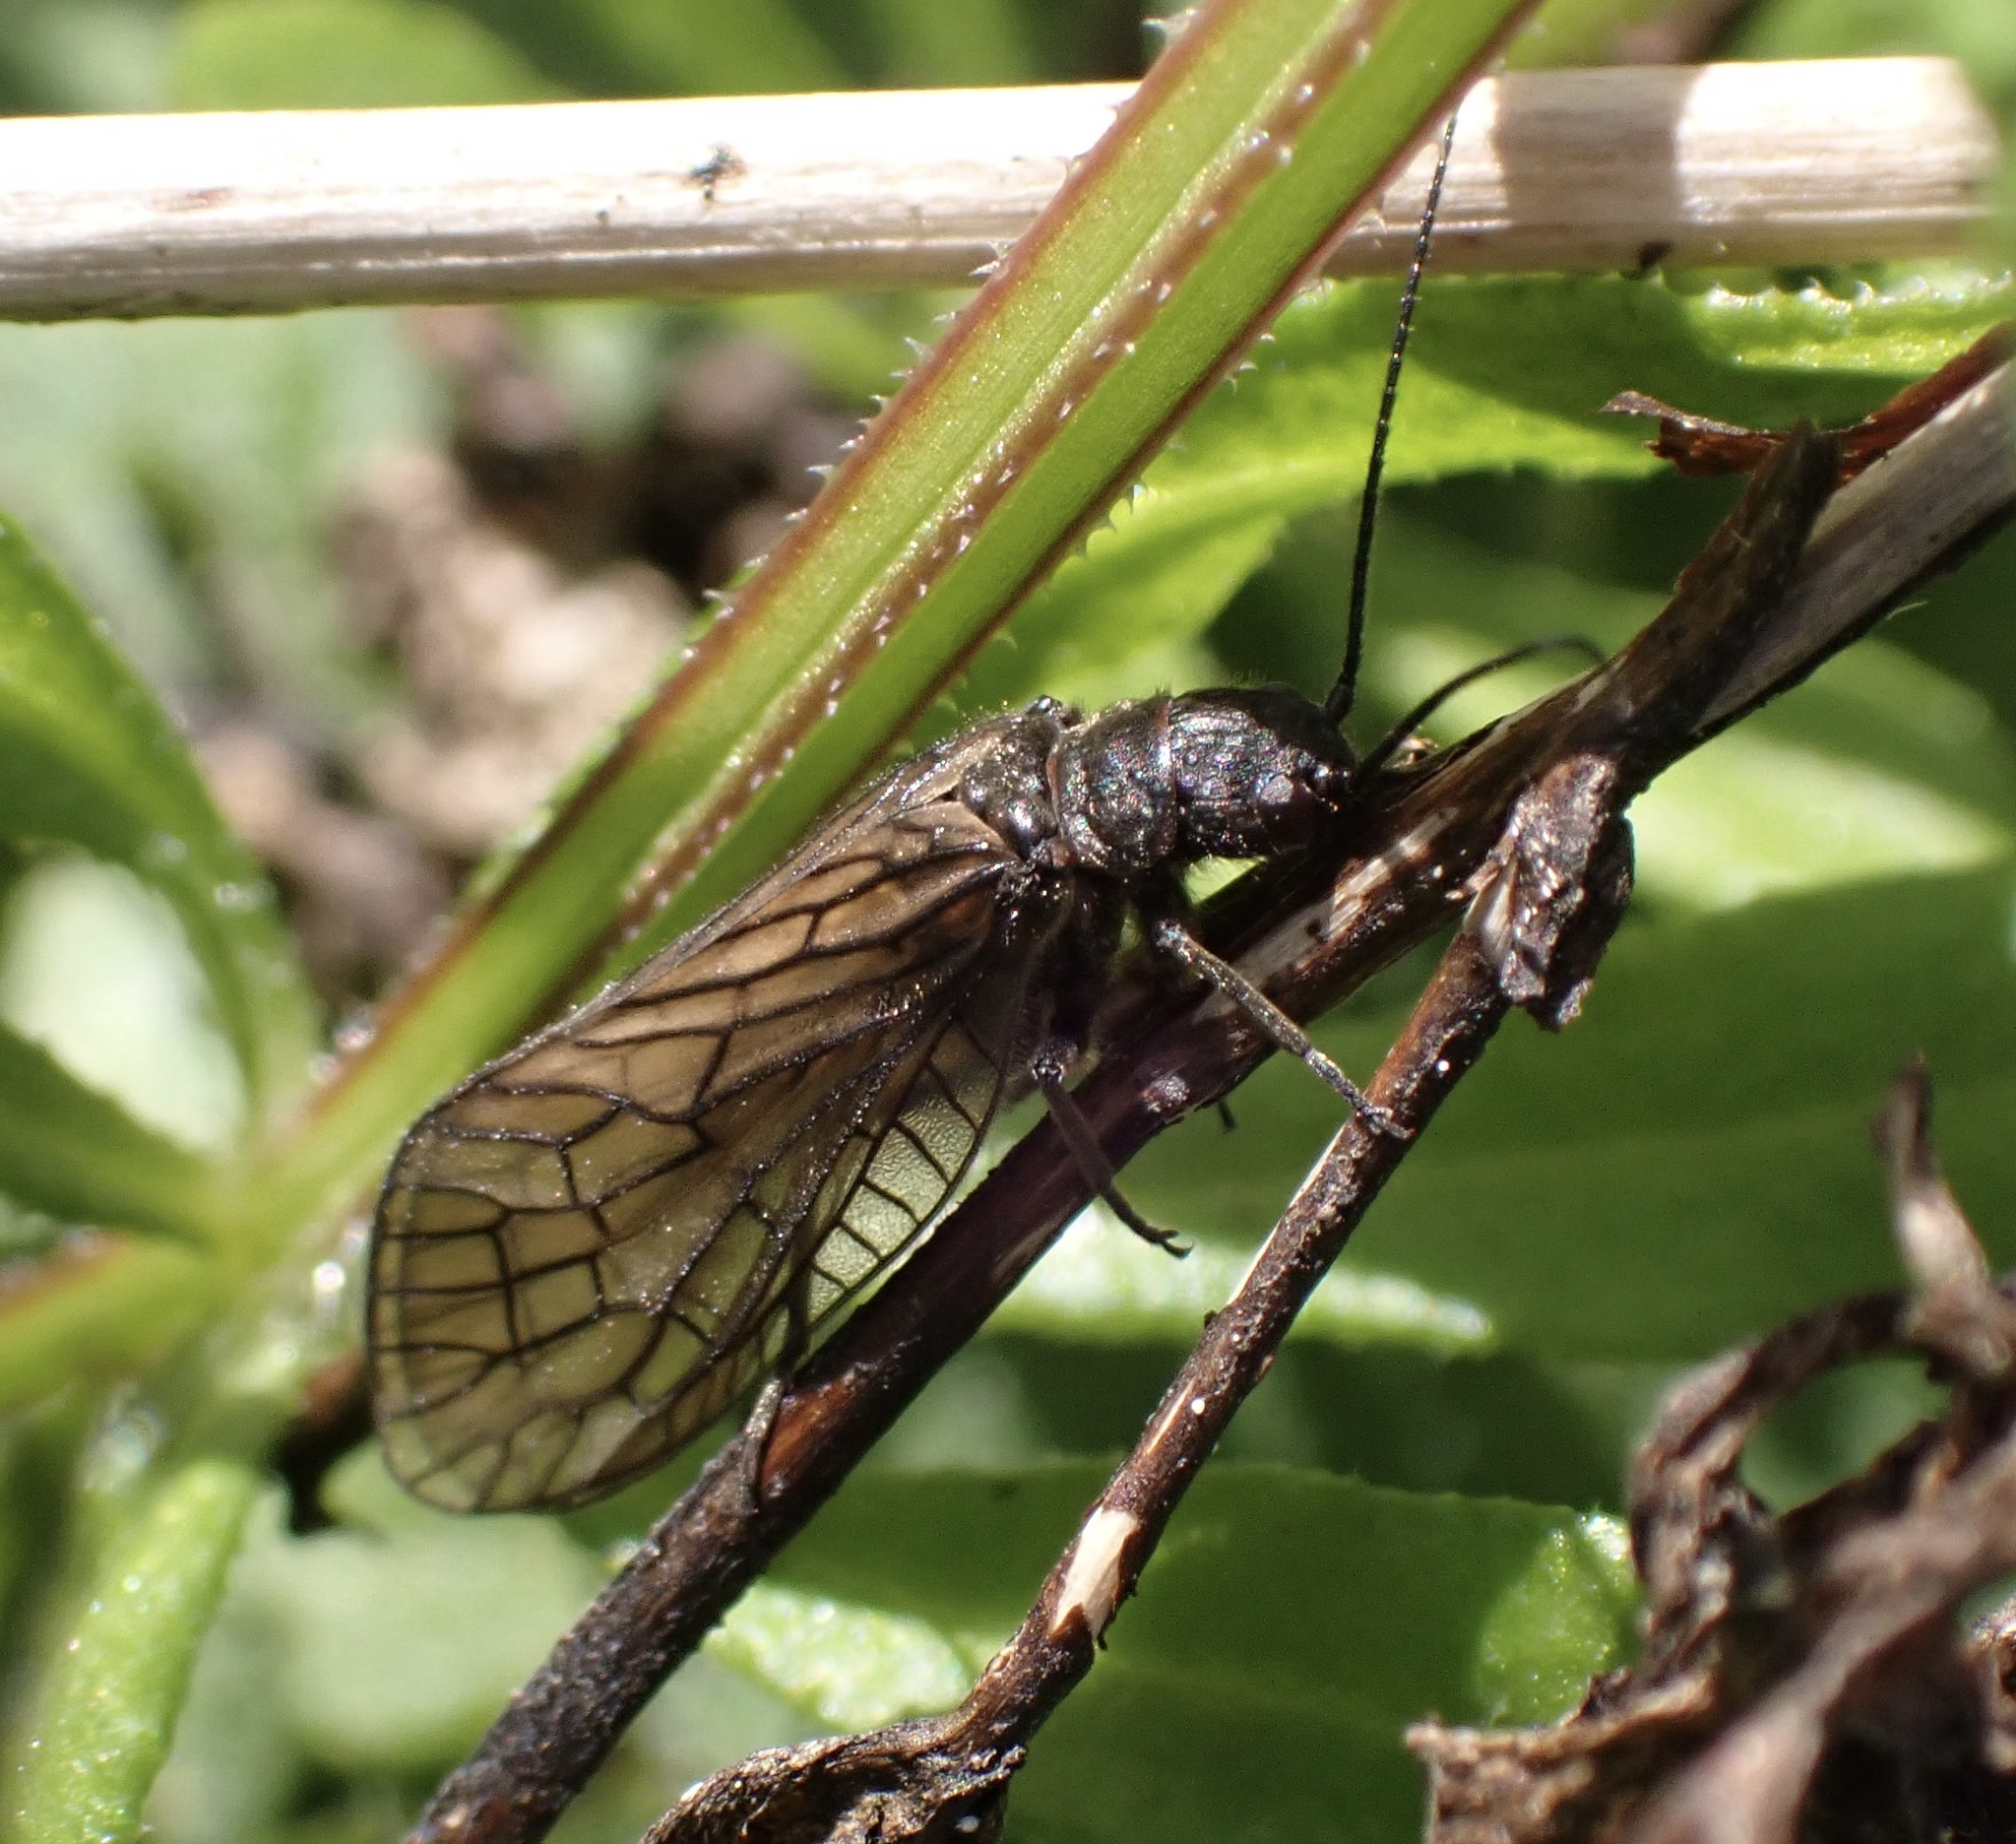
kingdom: Animalia
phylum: Arthropoda
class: Insecta
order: Megaloptera
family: Sialidae
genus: Sialis
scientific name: Sialis
